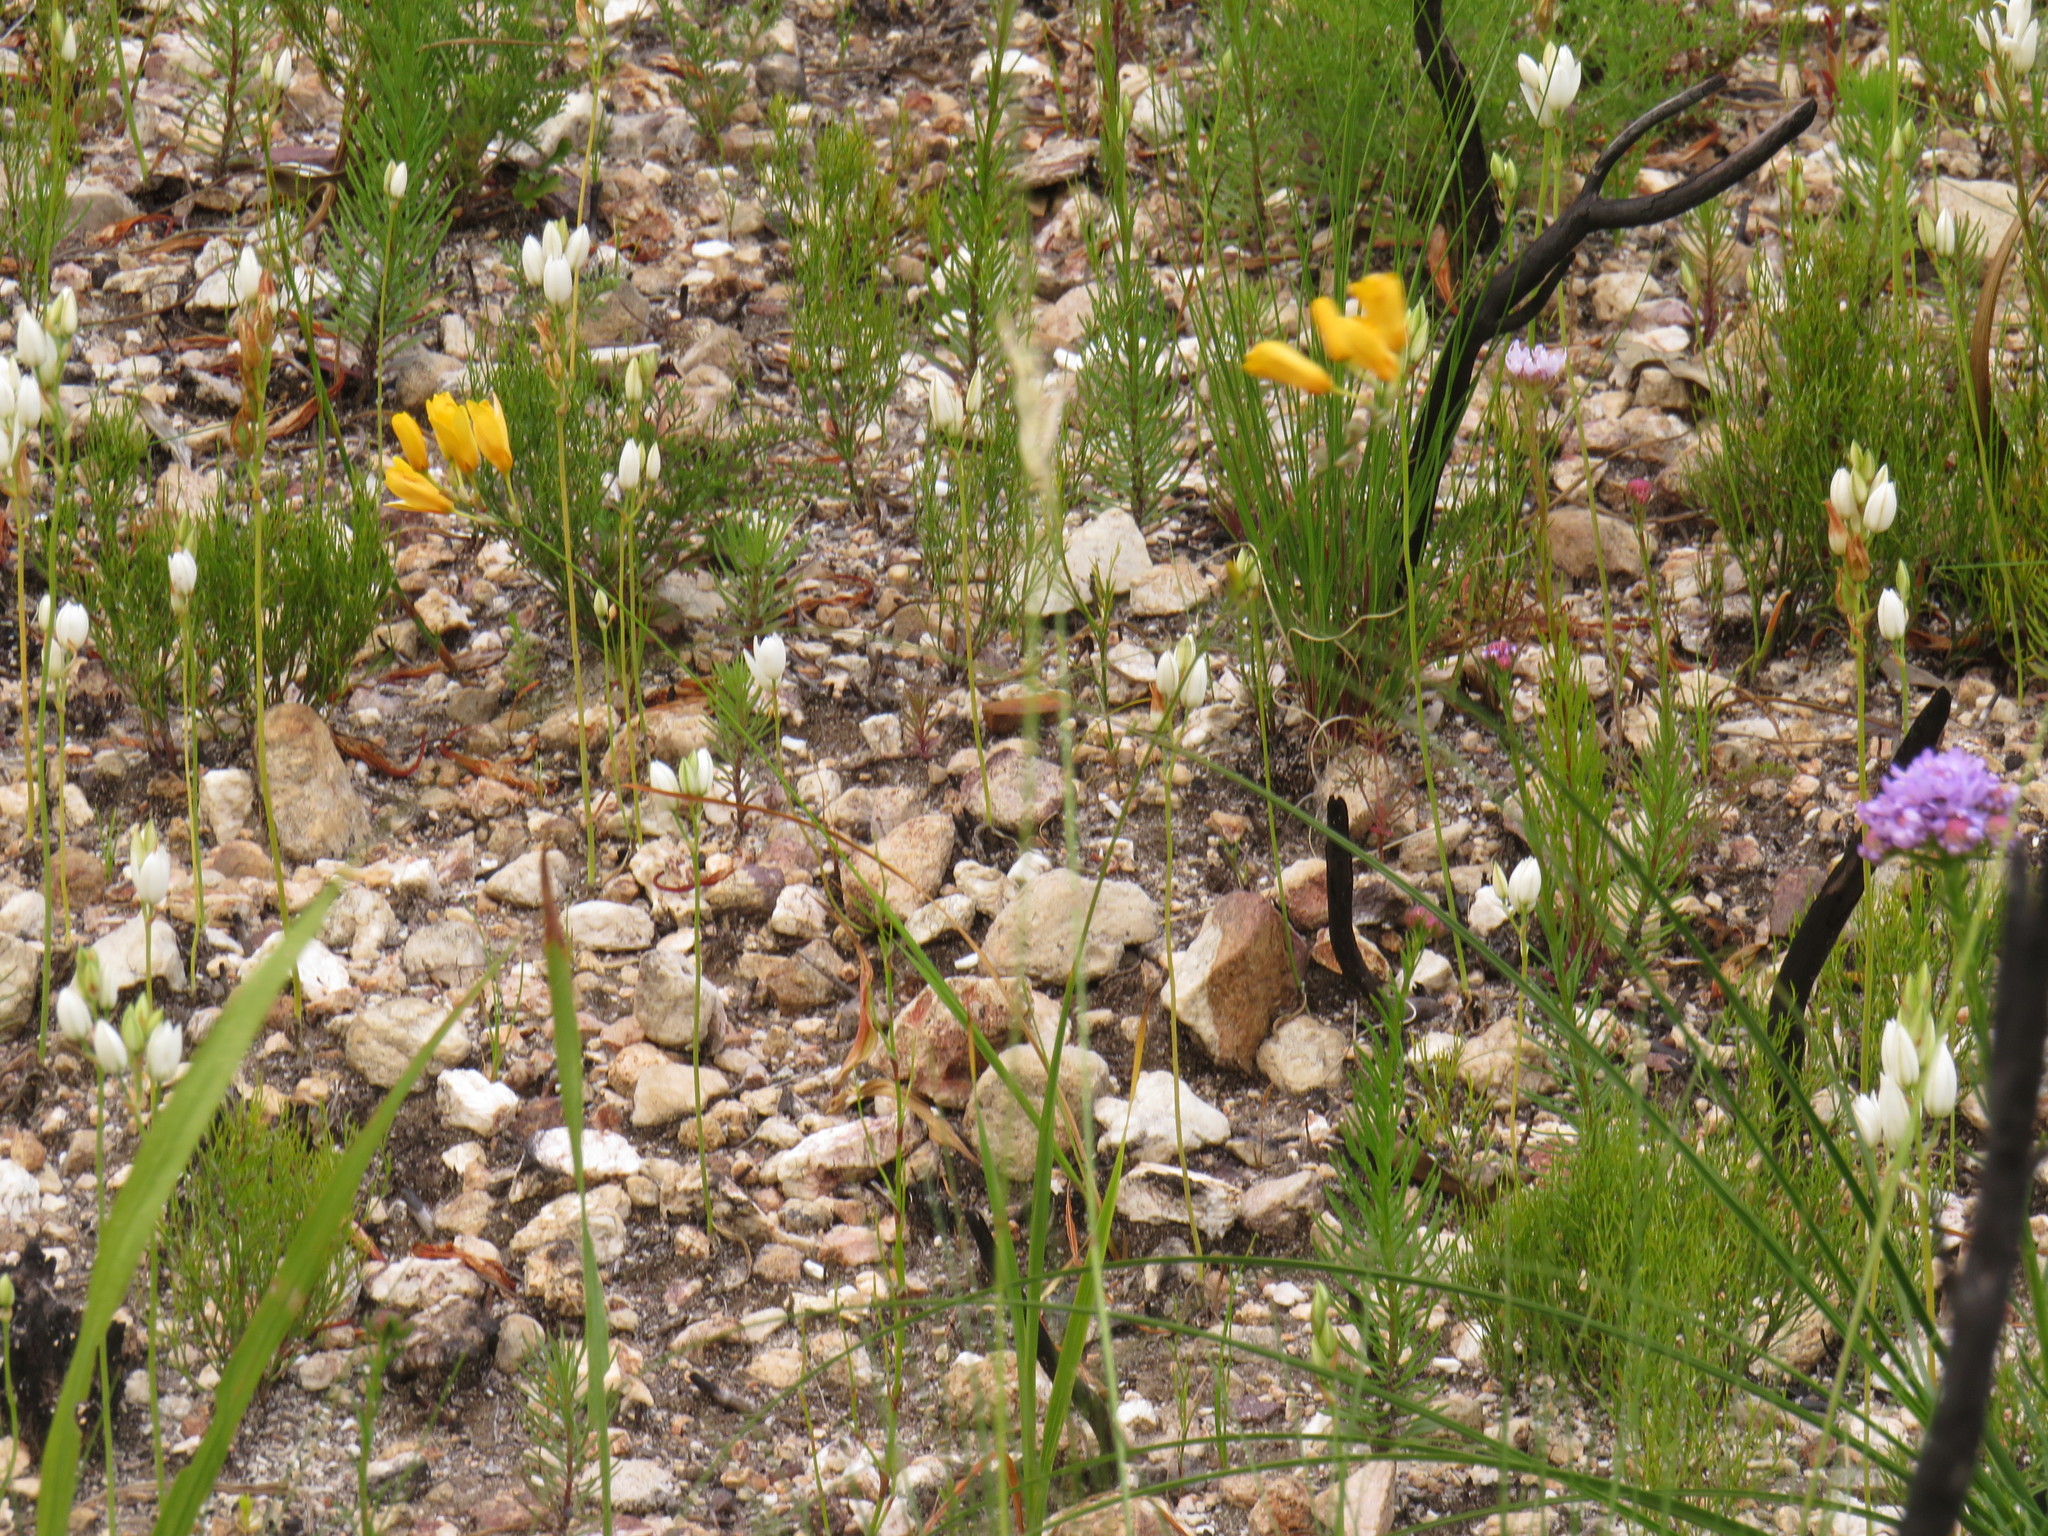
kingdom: Plantae
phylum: Tracheophyta
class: Liliopsida
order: Asparagales
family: Iridaceae
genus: Ixia
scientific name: Ixia sarmentosa
